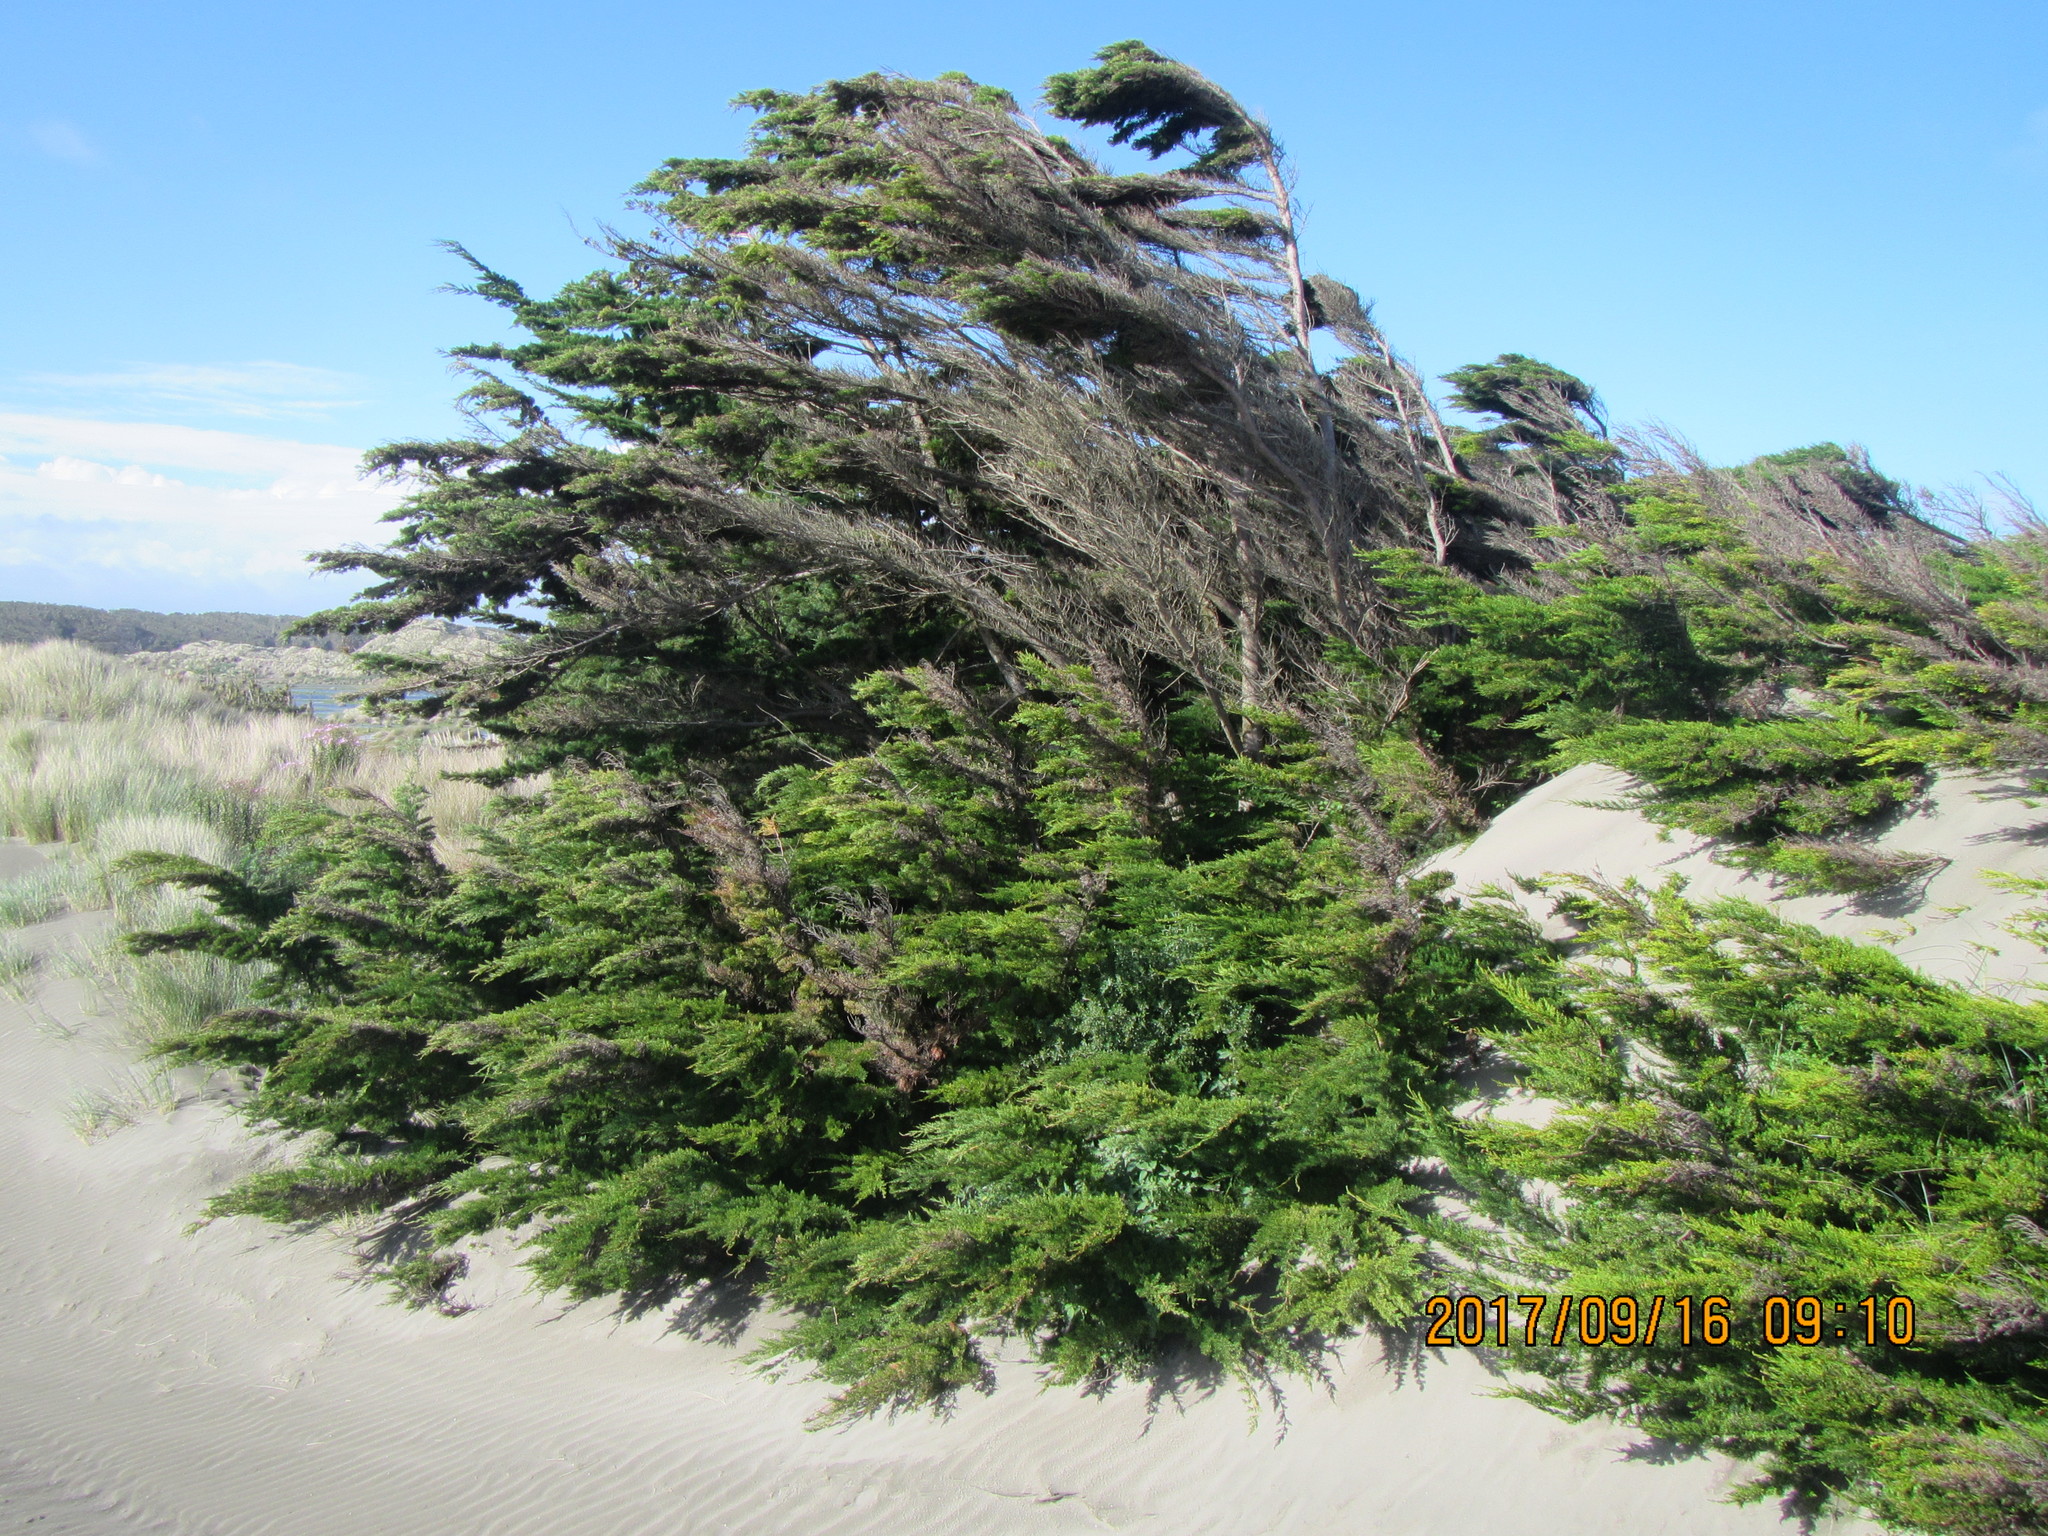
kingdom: Plantae
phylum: Tracheophyta
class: Pinopsida
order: Pinales
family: Cupressaceae
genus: Cupressus
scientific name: Cupressus macrocarpa
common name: Monterey cypress
